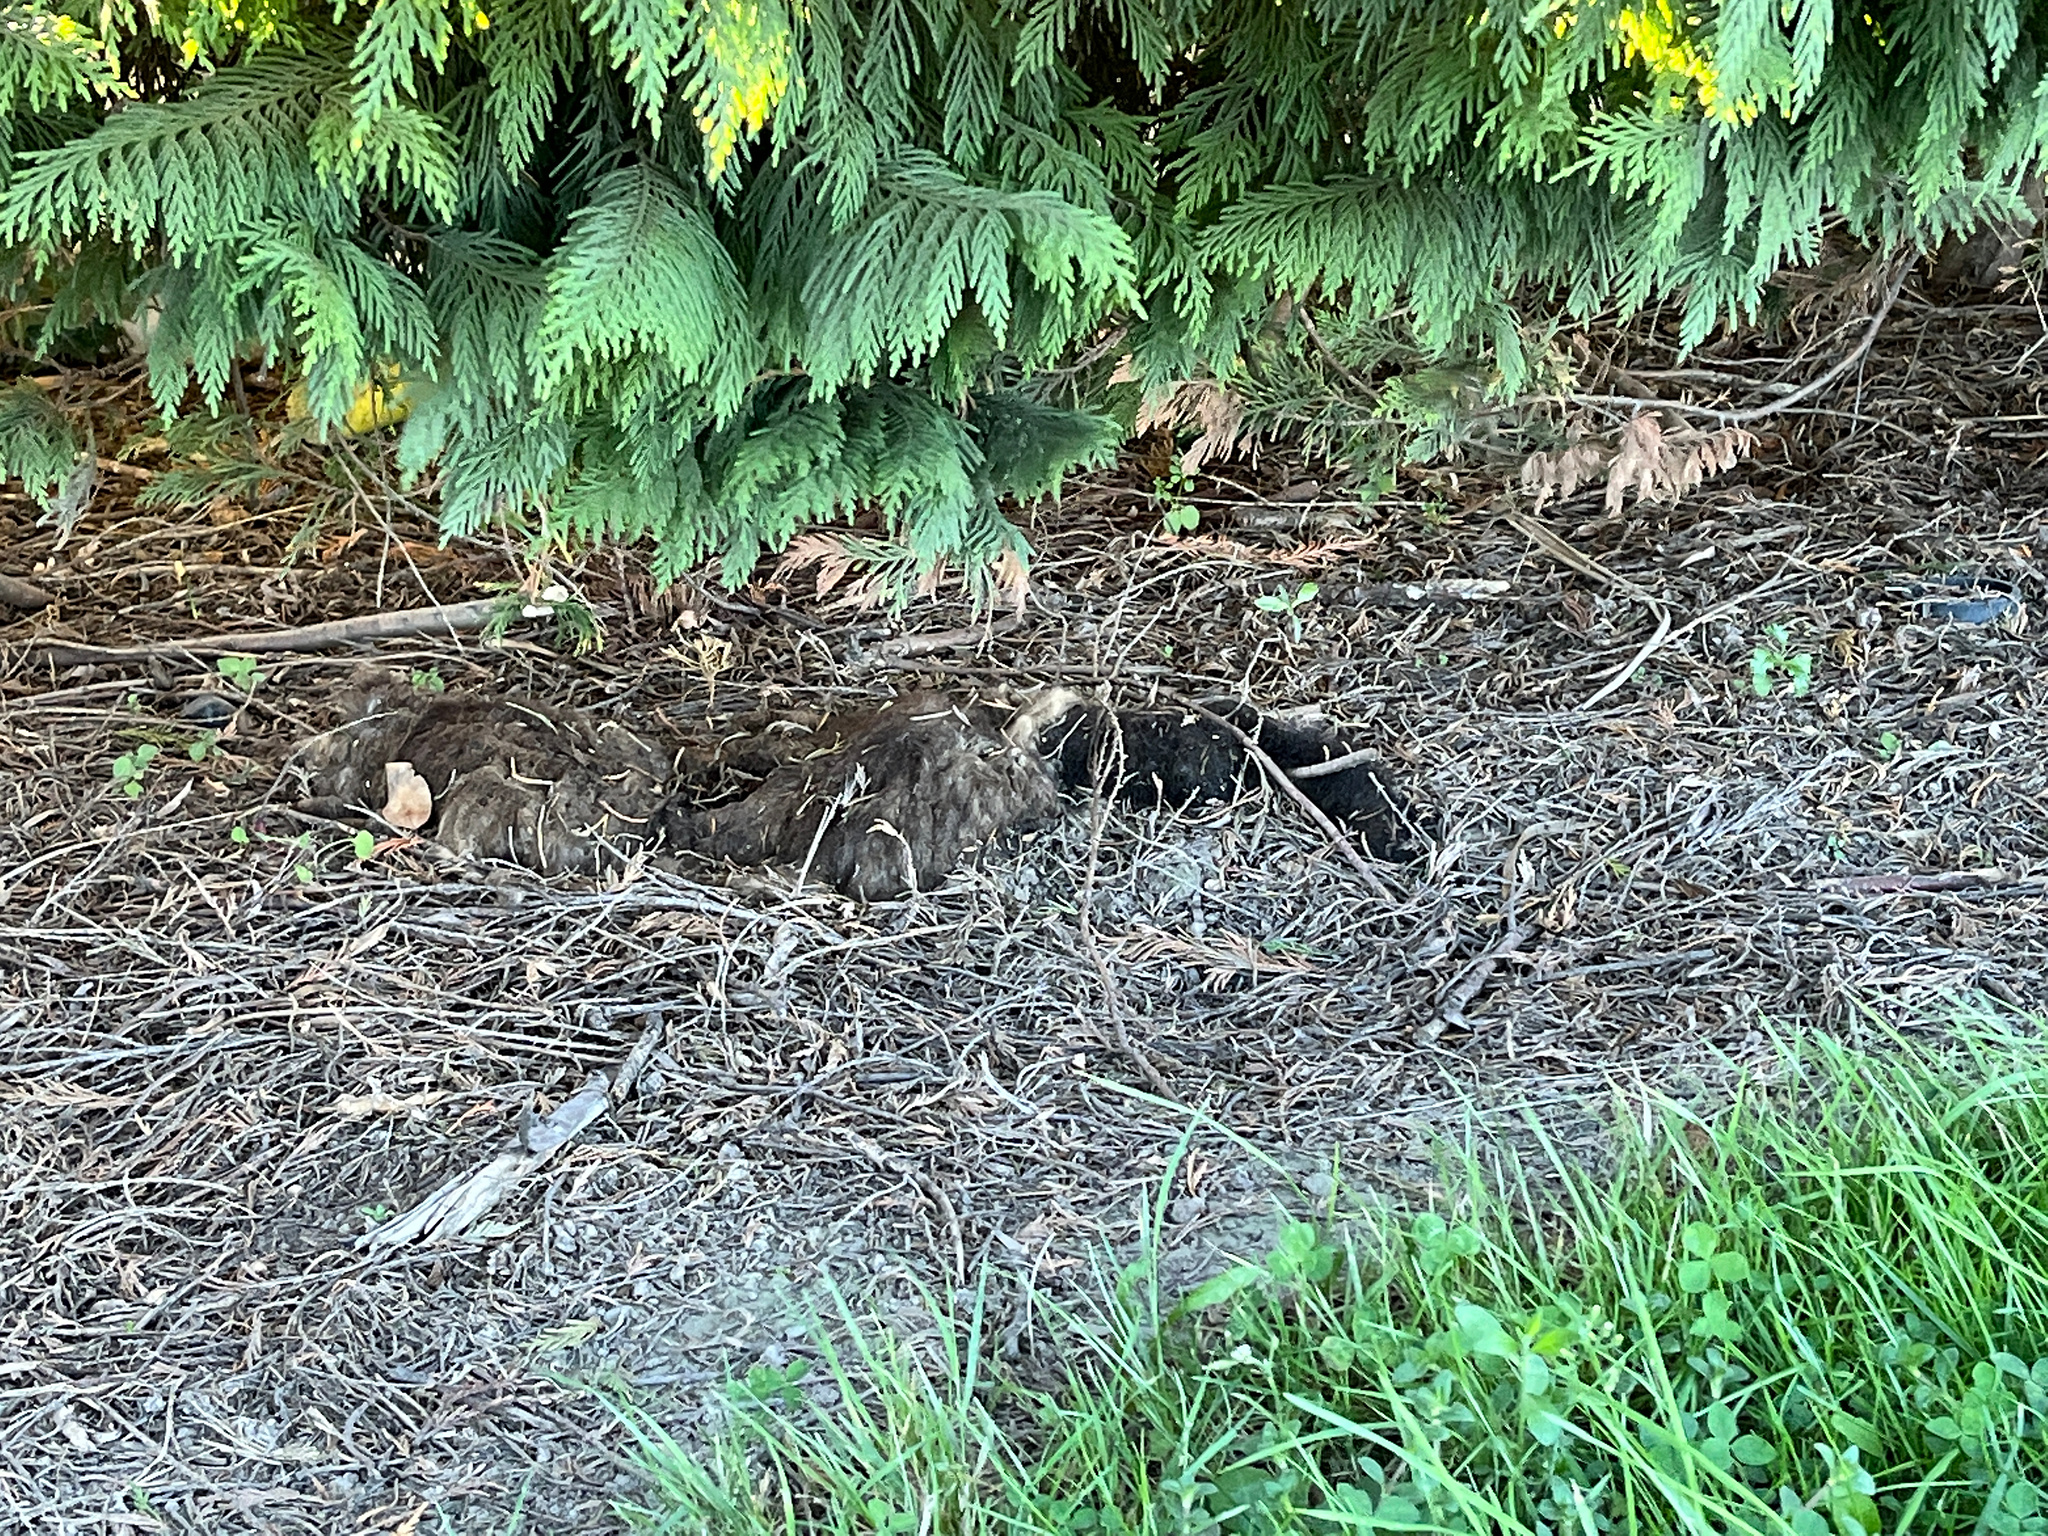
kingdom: Animalia
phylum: Chordata
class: Mammalia
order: Diprotodontia
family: Phalangeridae
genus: Trichosurus
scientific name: Trichosurus vulpecula
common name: Common brushtail
